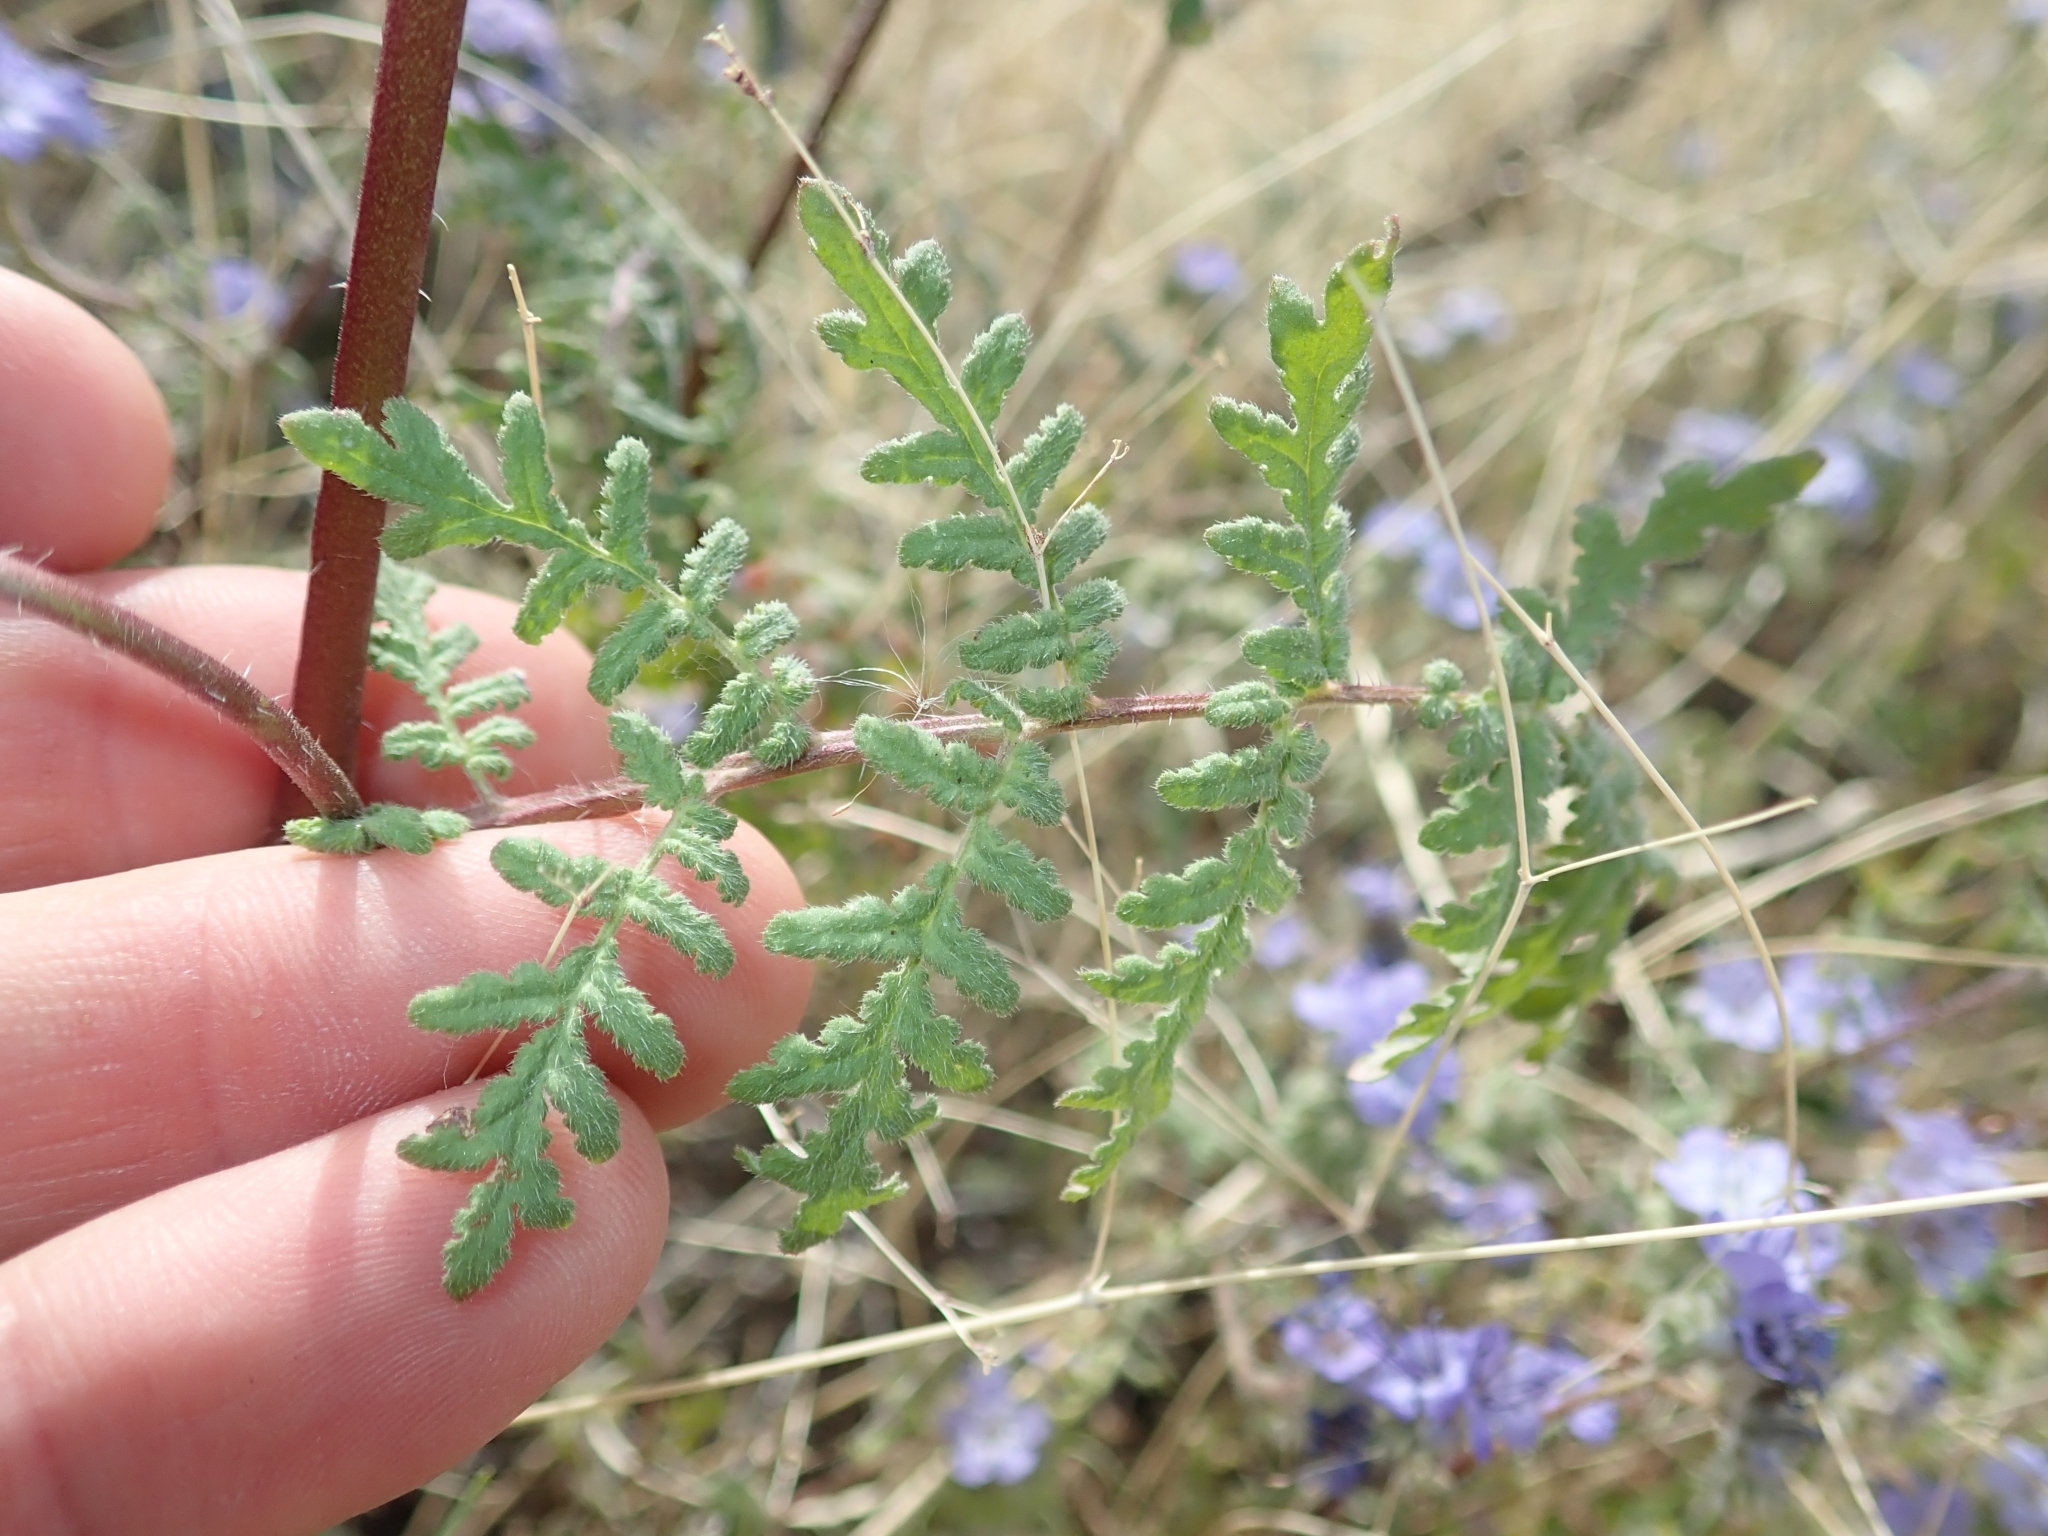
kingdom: Plantae
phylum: Tracheophyta
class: Magnoliopsida
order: Boraginales
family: Hydrophyllaceae
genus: Phacelia
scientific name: Phacelia distans
